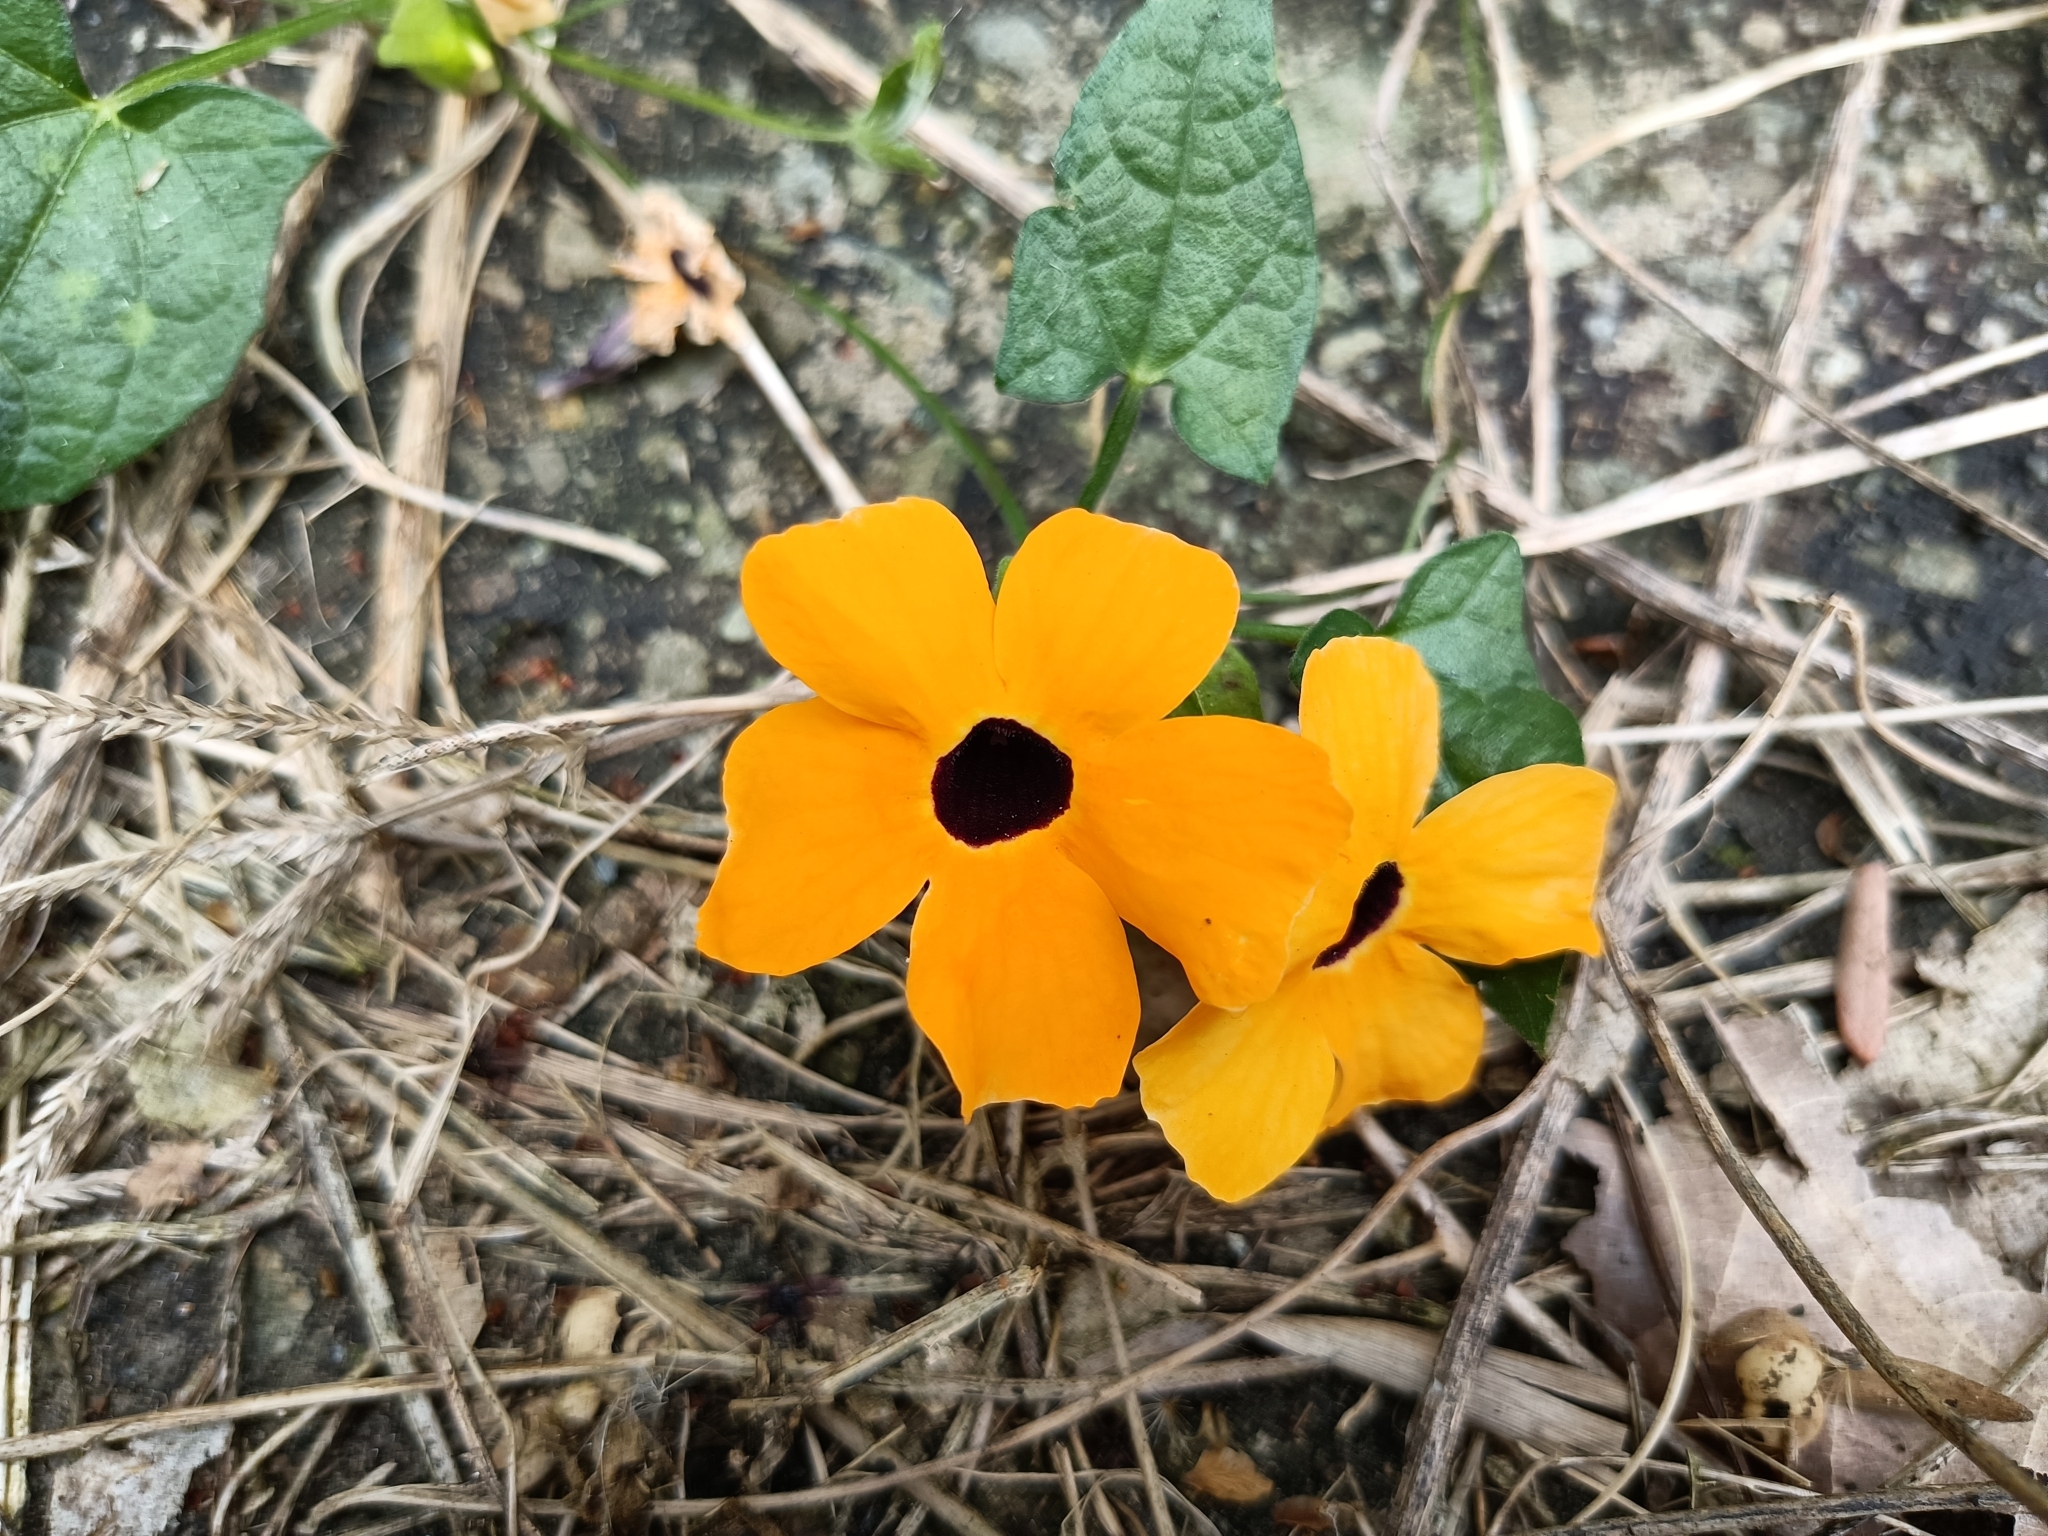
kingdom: Plantae
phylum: Tracheophyta
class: Magnoliopsida
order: Lamiales
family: Acanthaceae
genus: Thunbergia
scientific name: Thunbergia alata
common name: Blackeyed susan vine
